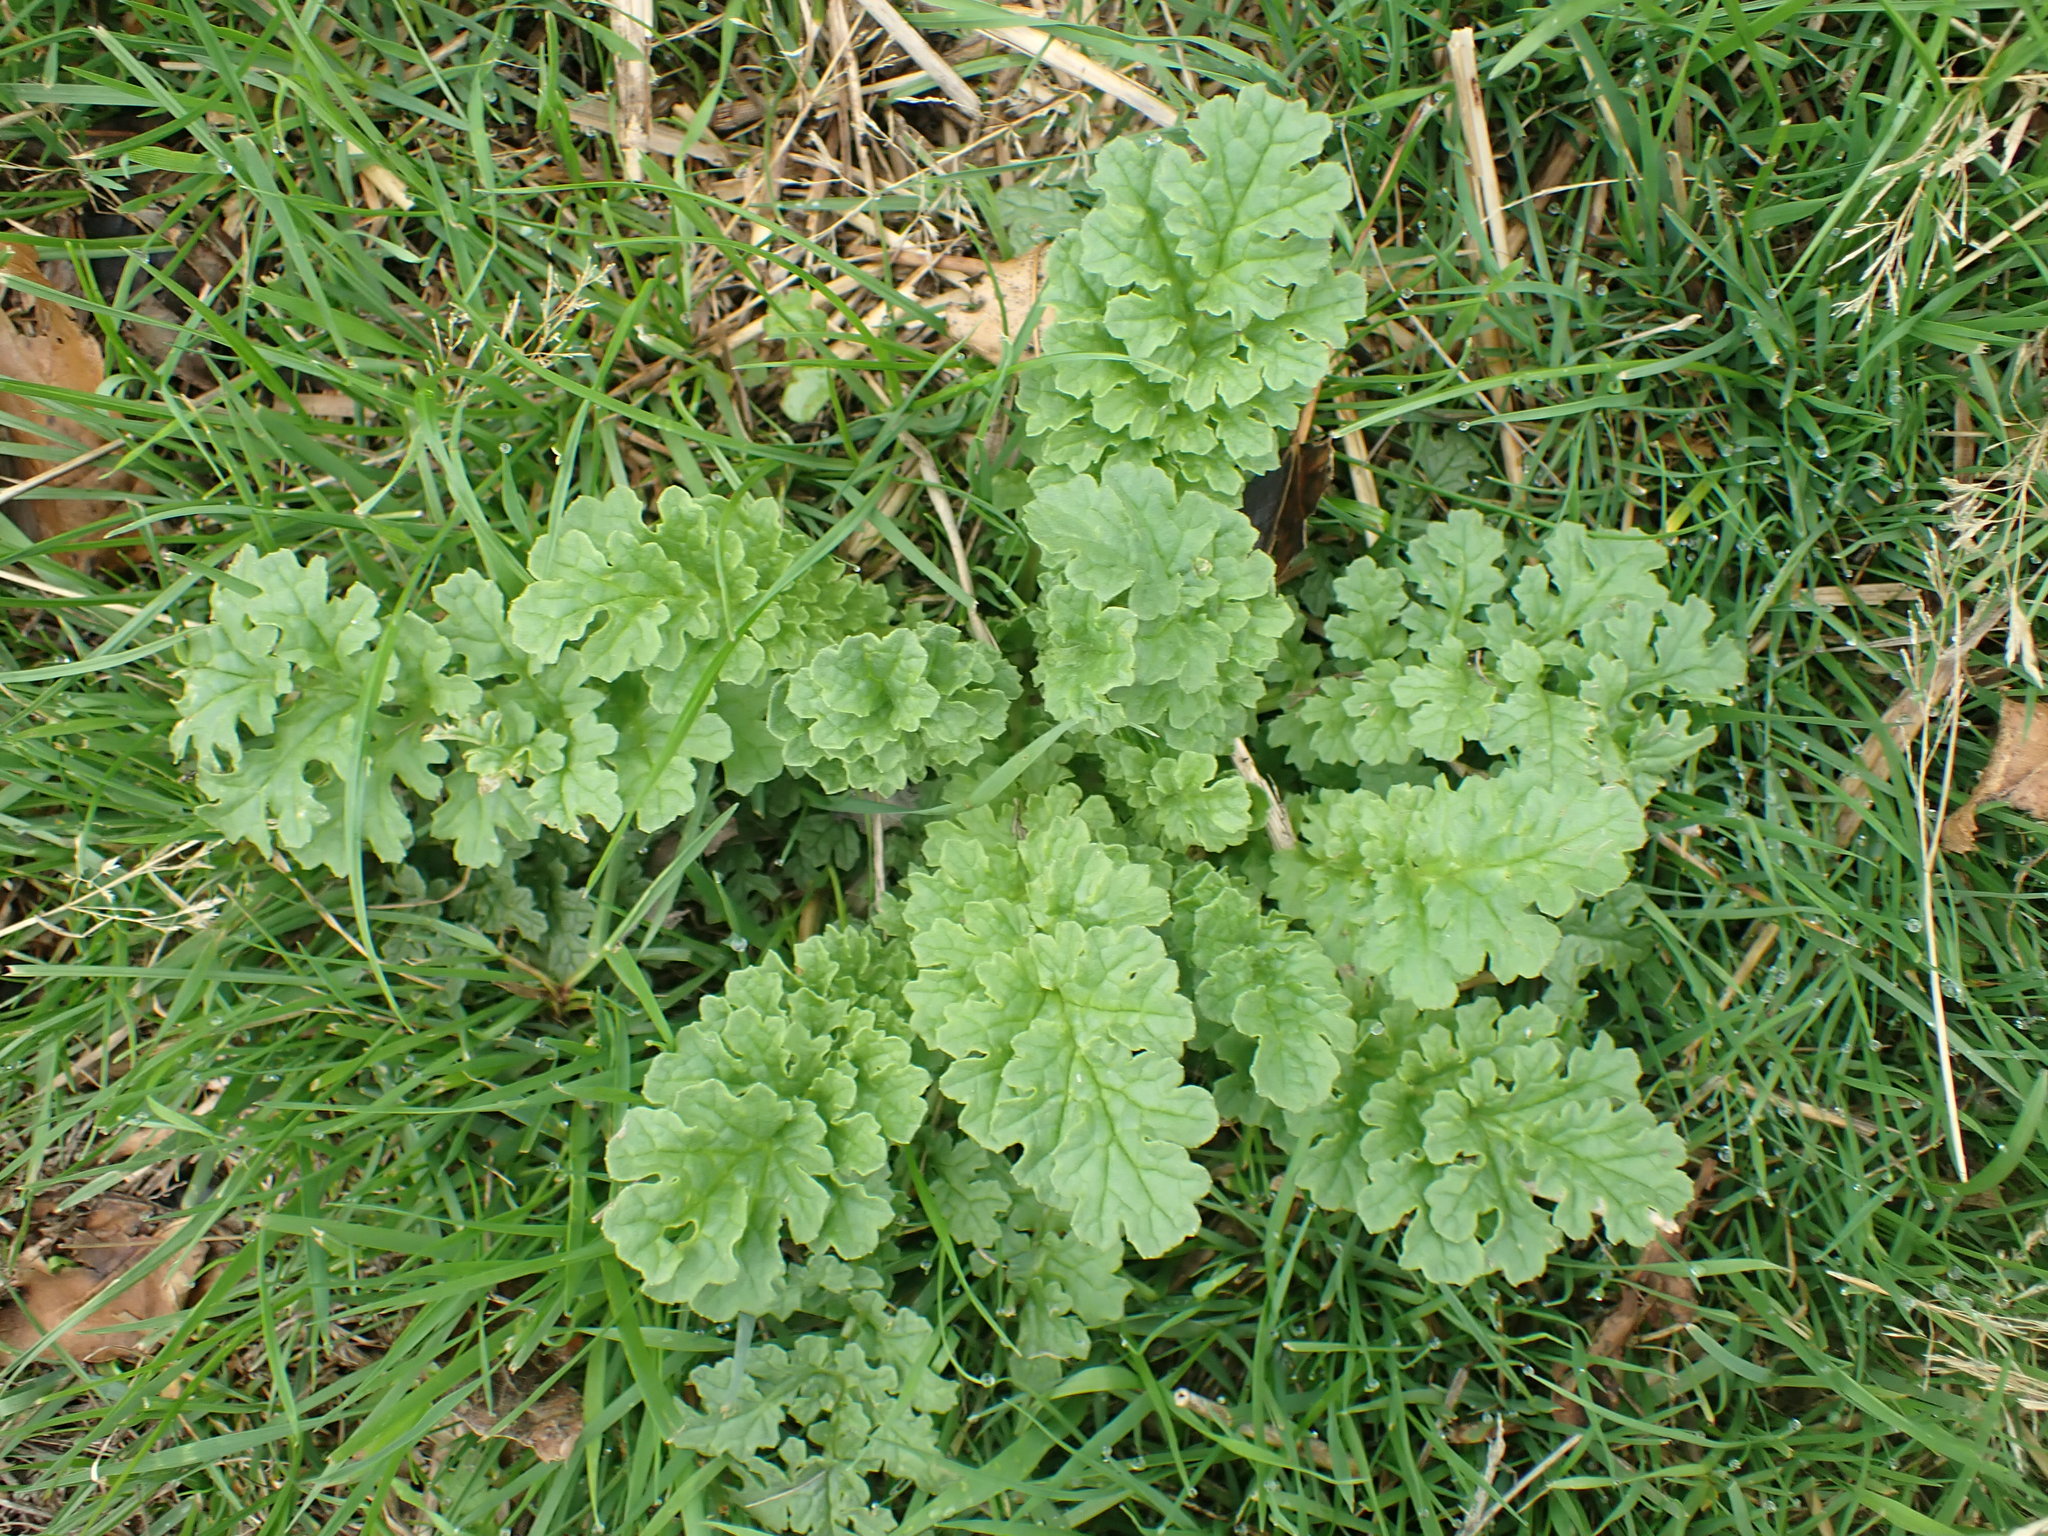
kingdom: Plantae
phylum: Tracheophyta
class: Magnoliopsida
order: Asterales
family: Asteraceae
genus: Jacobaea
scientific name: Jacobaea vulgaris
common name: Stinking willie
